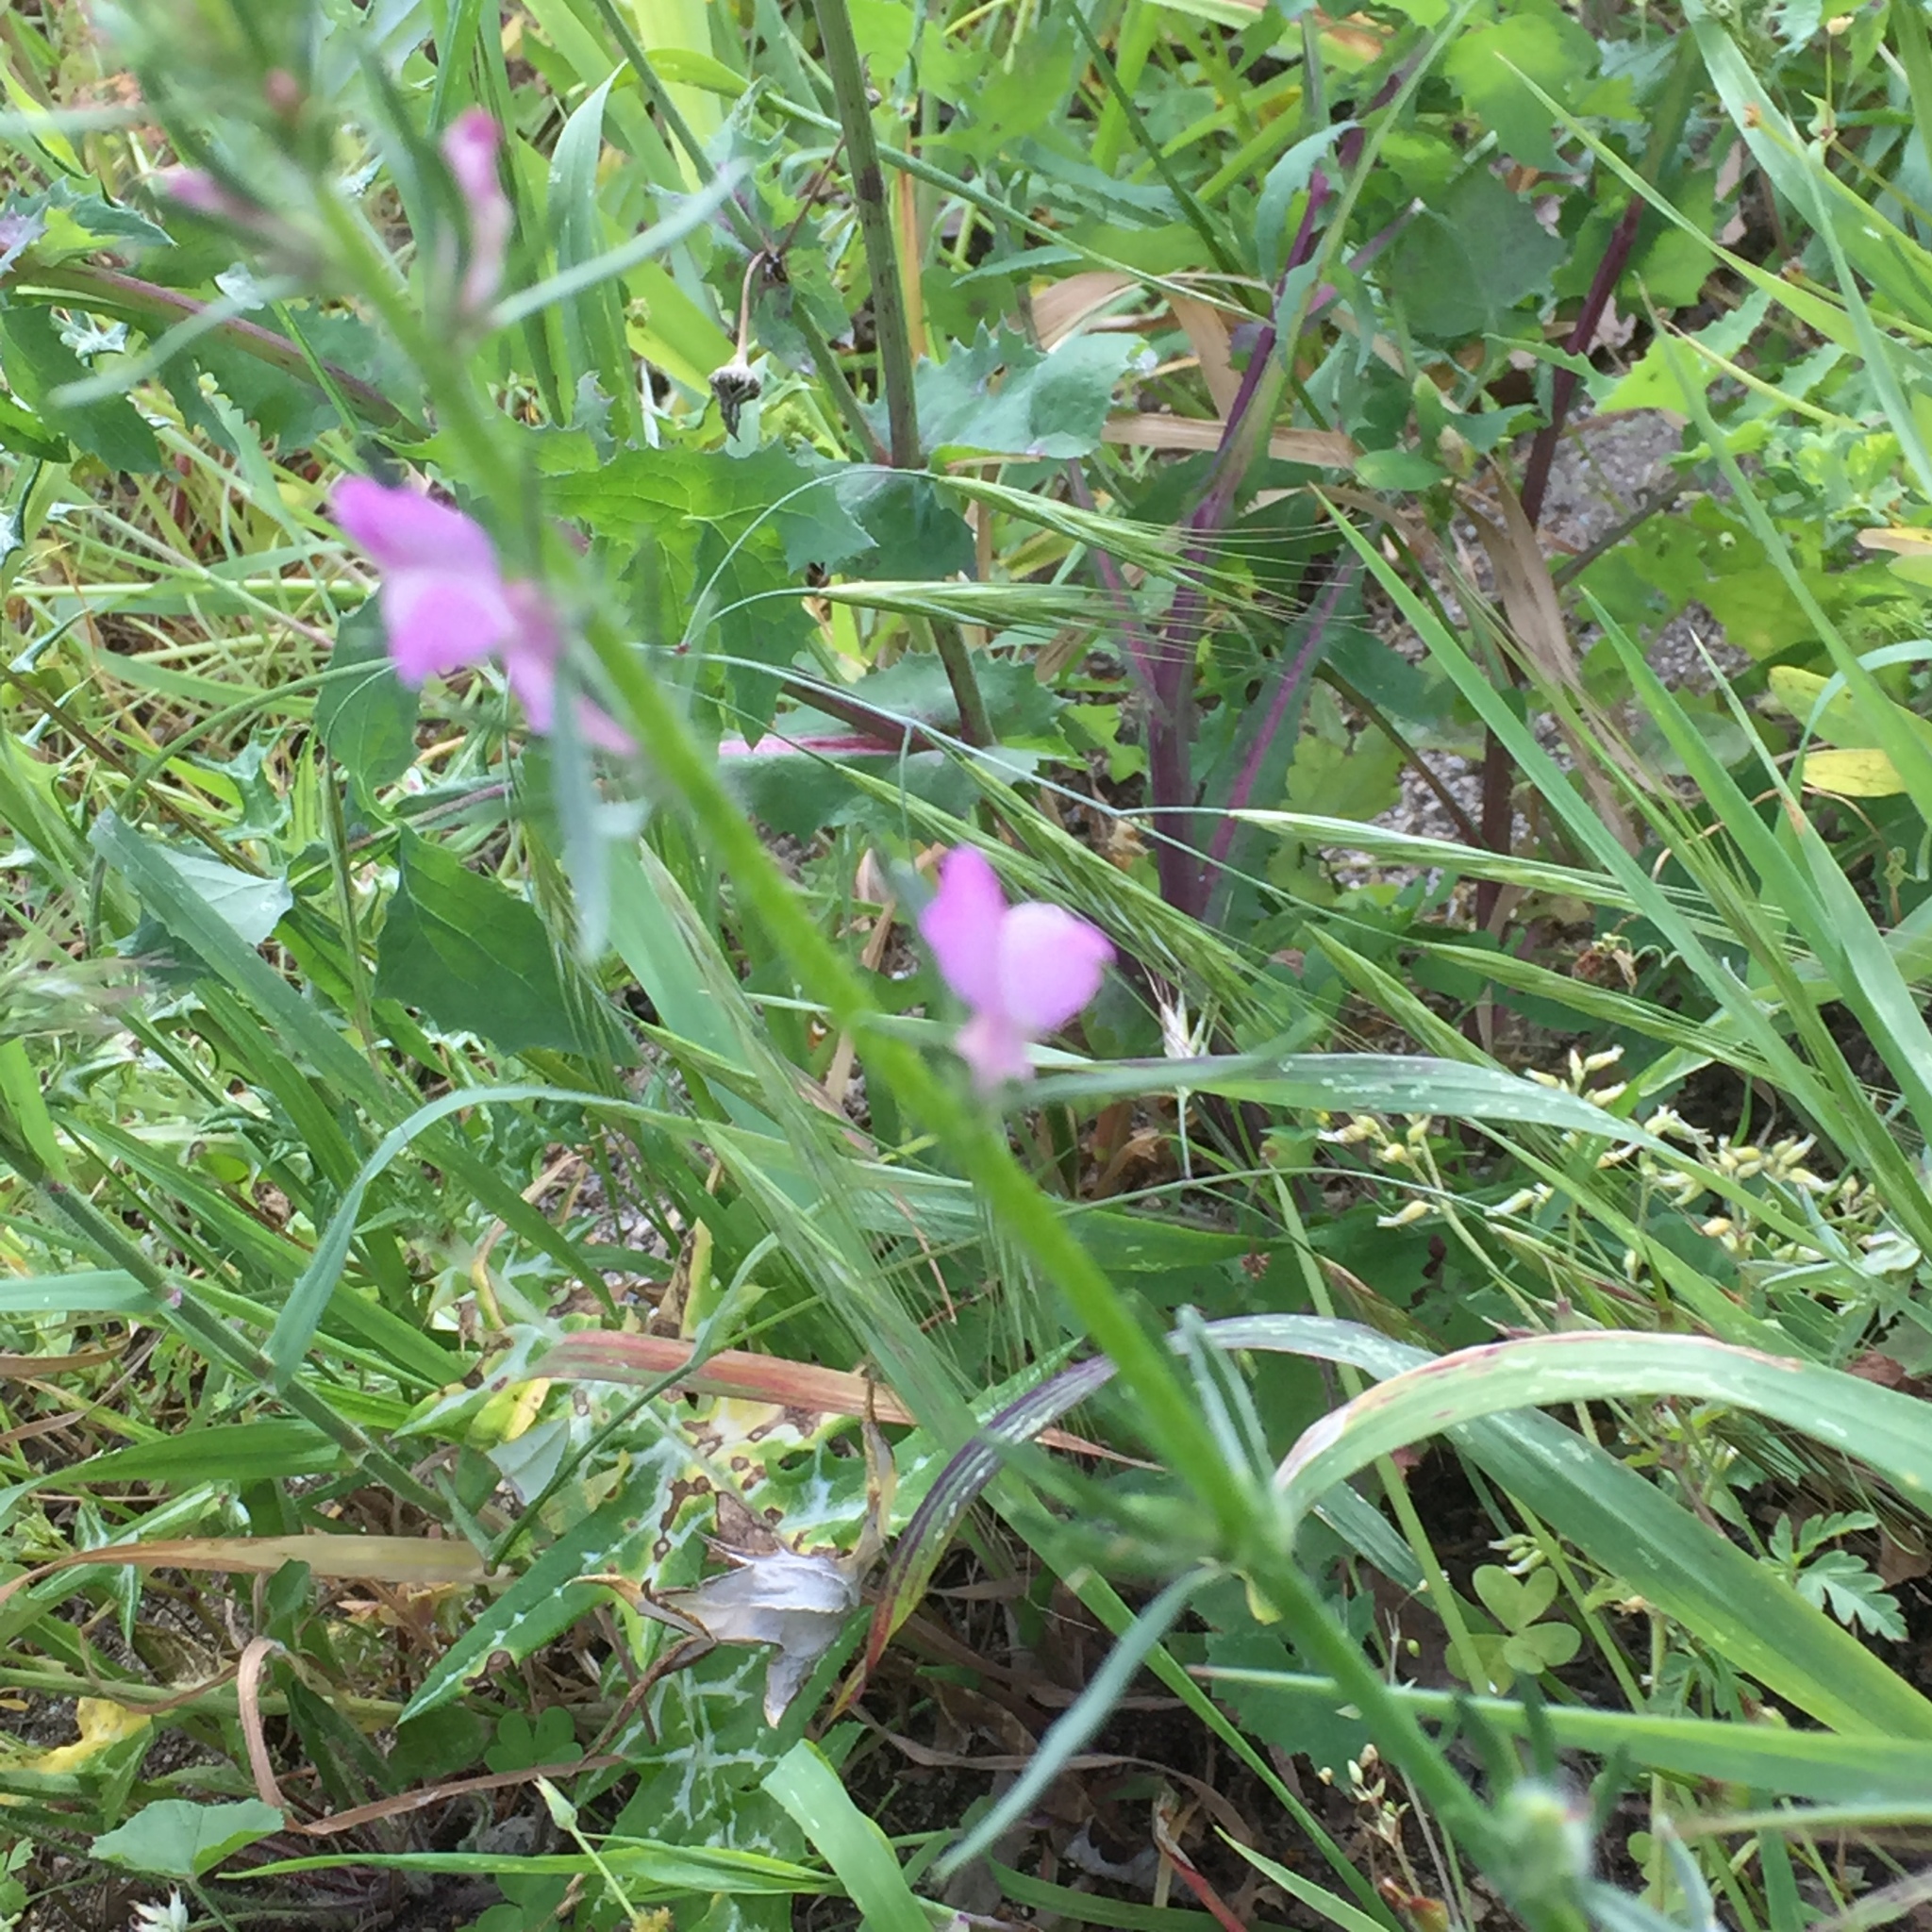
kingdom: Plantae
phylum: Tracheophyta
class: Magnoliopsida
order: Lamiales
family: Plantaginaceae
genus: Misopates
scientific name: Misopates orontium
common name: Weasel's-snout
